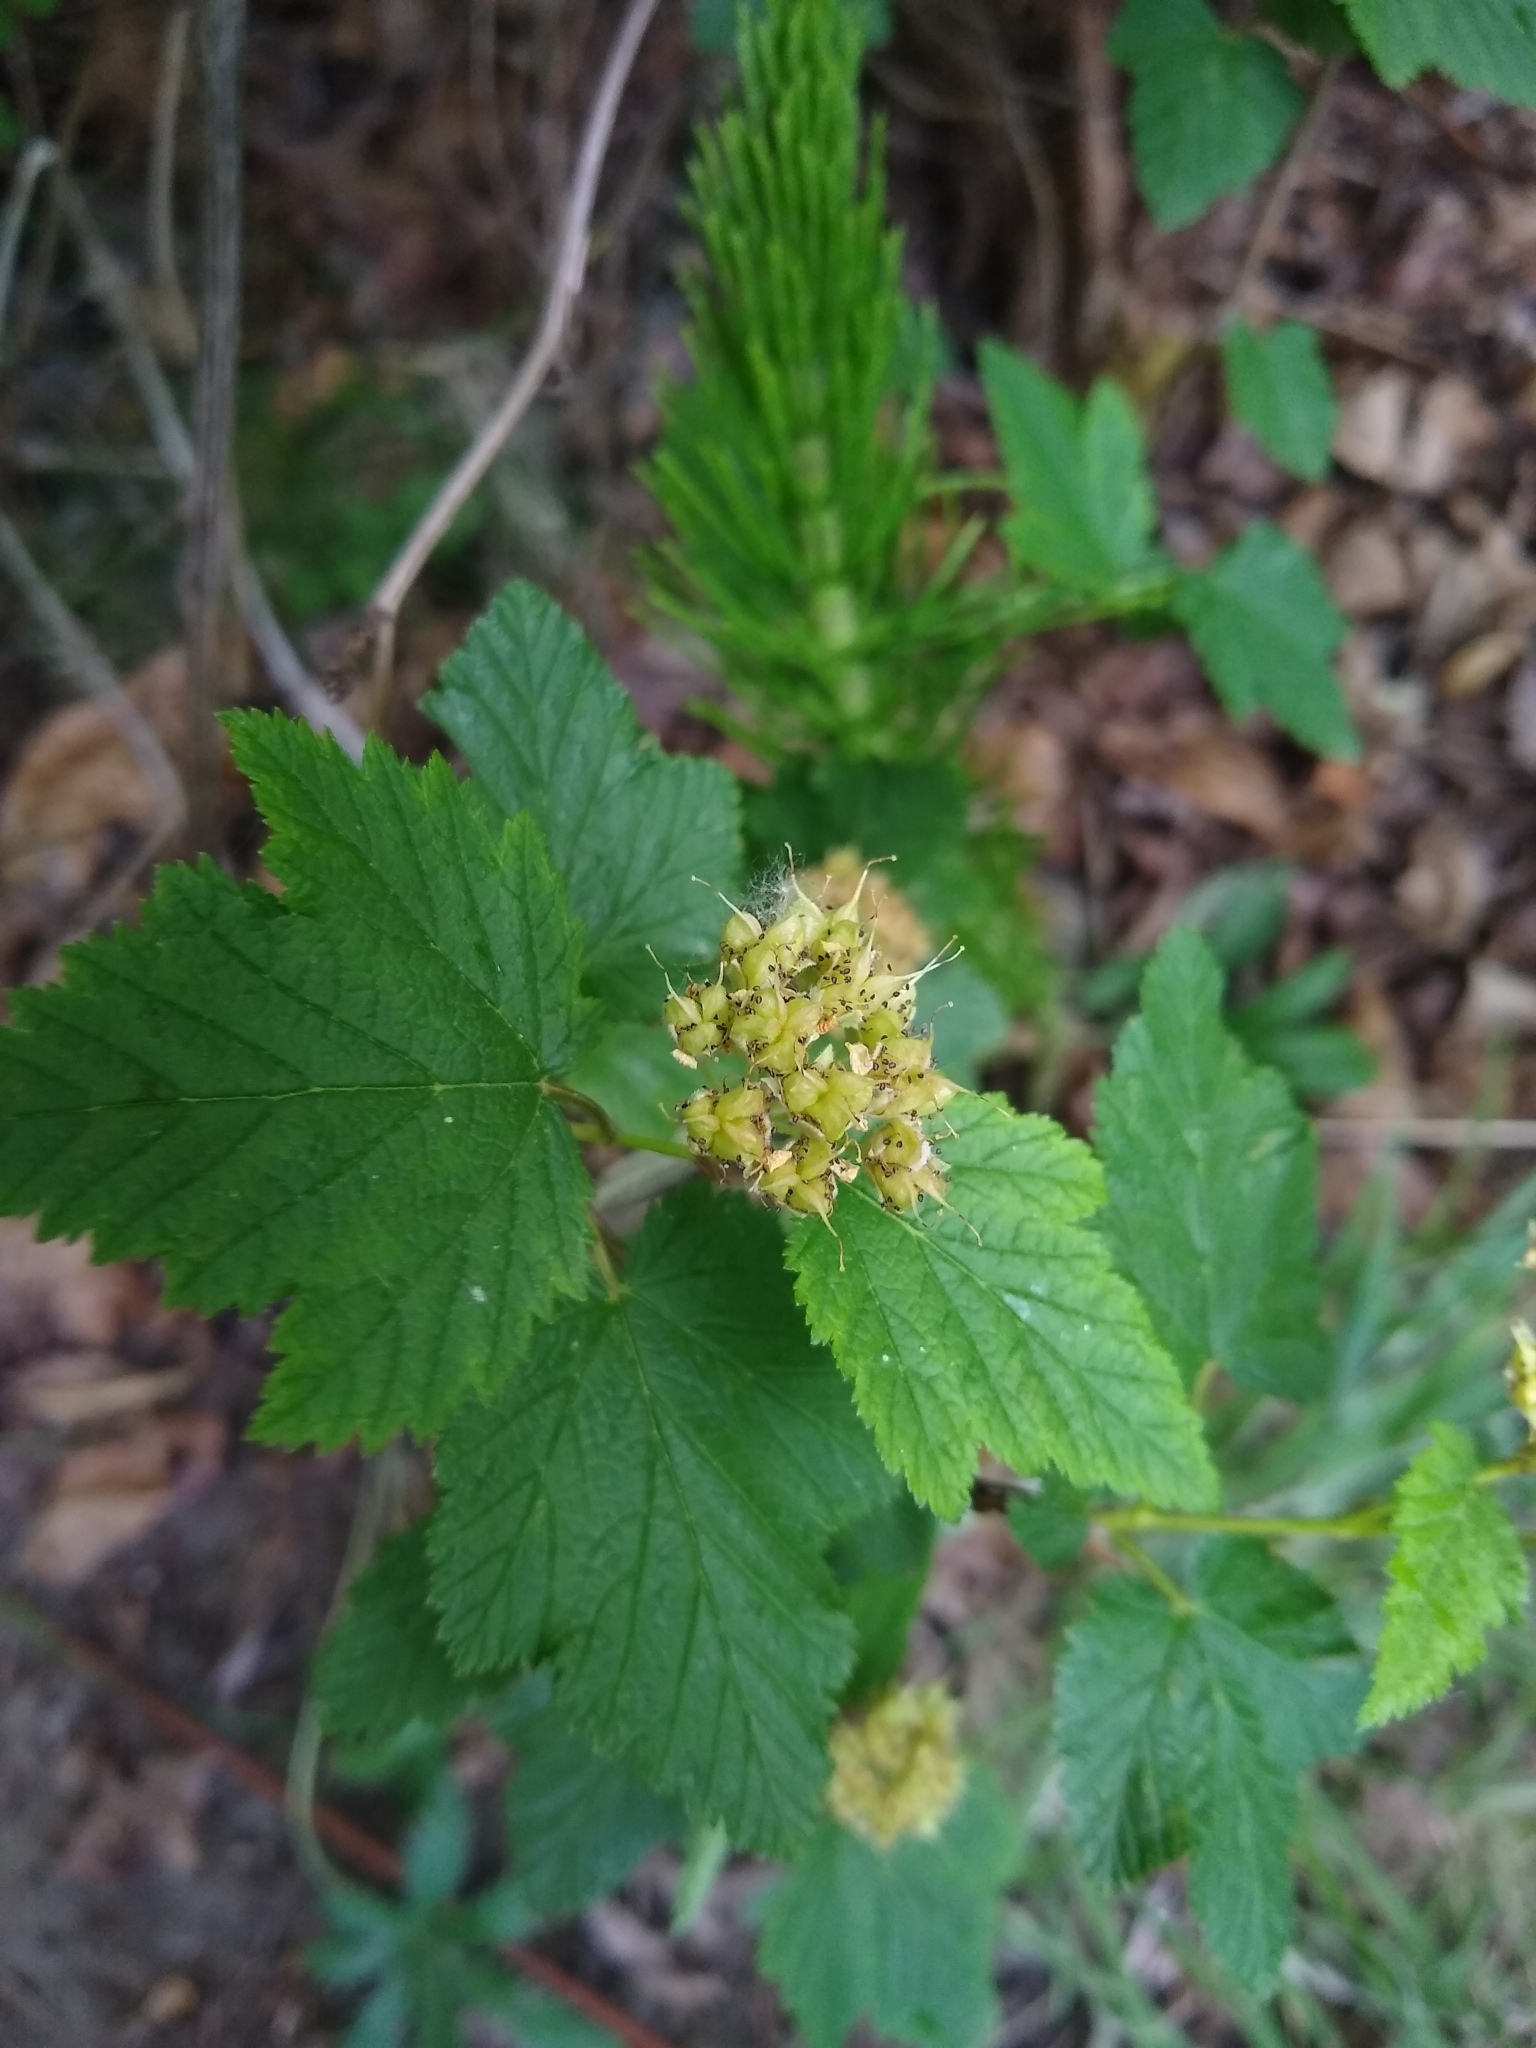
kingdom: Plantae
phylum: Tracheophyta
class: Magnoliopsida
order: Rosales
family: Rosaceae
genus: Physocarpus
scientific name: Physocarpus capitatus
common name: Pacific ninebark
